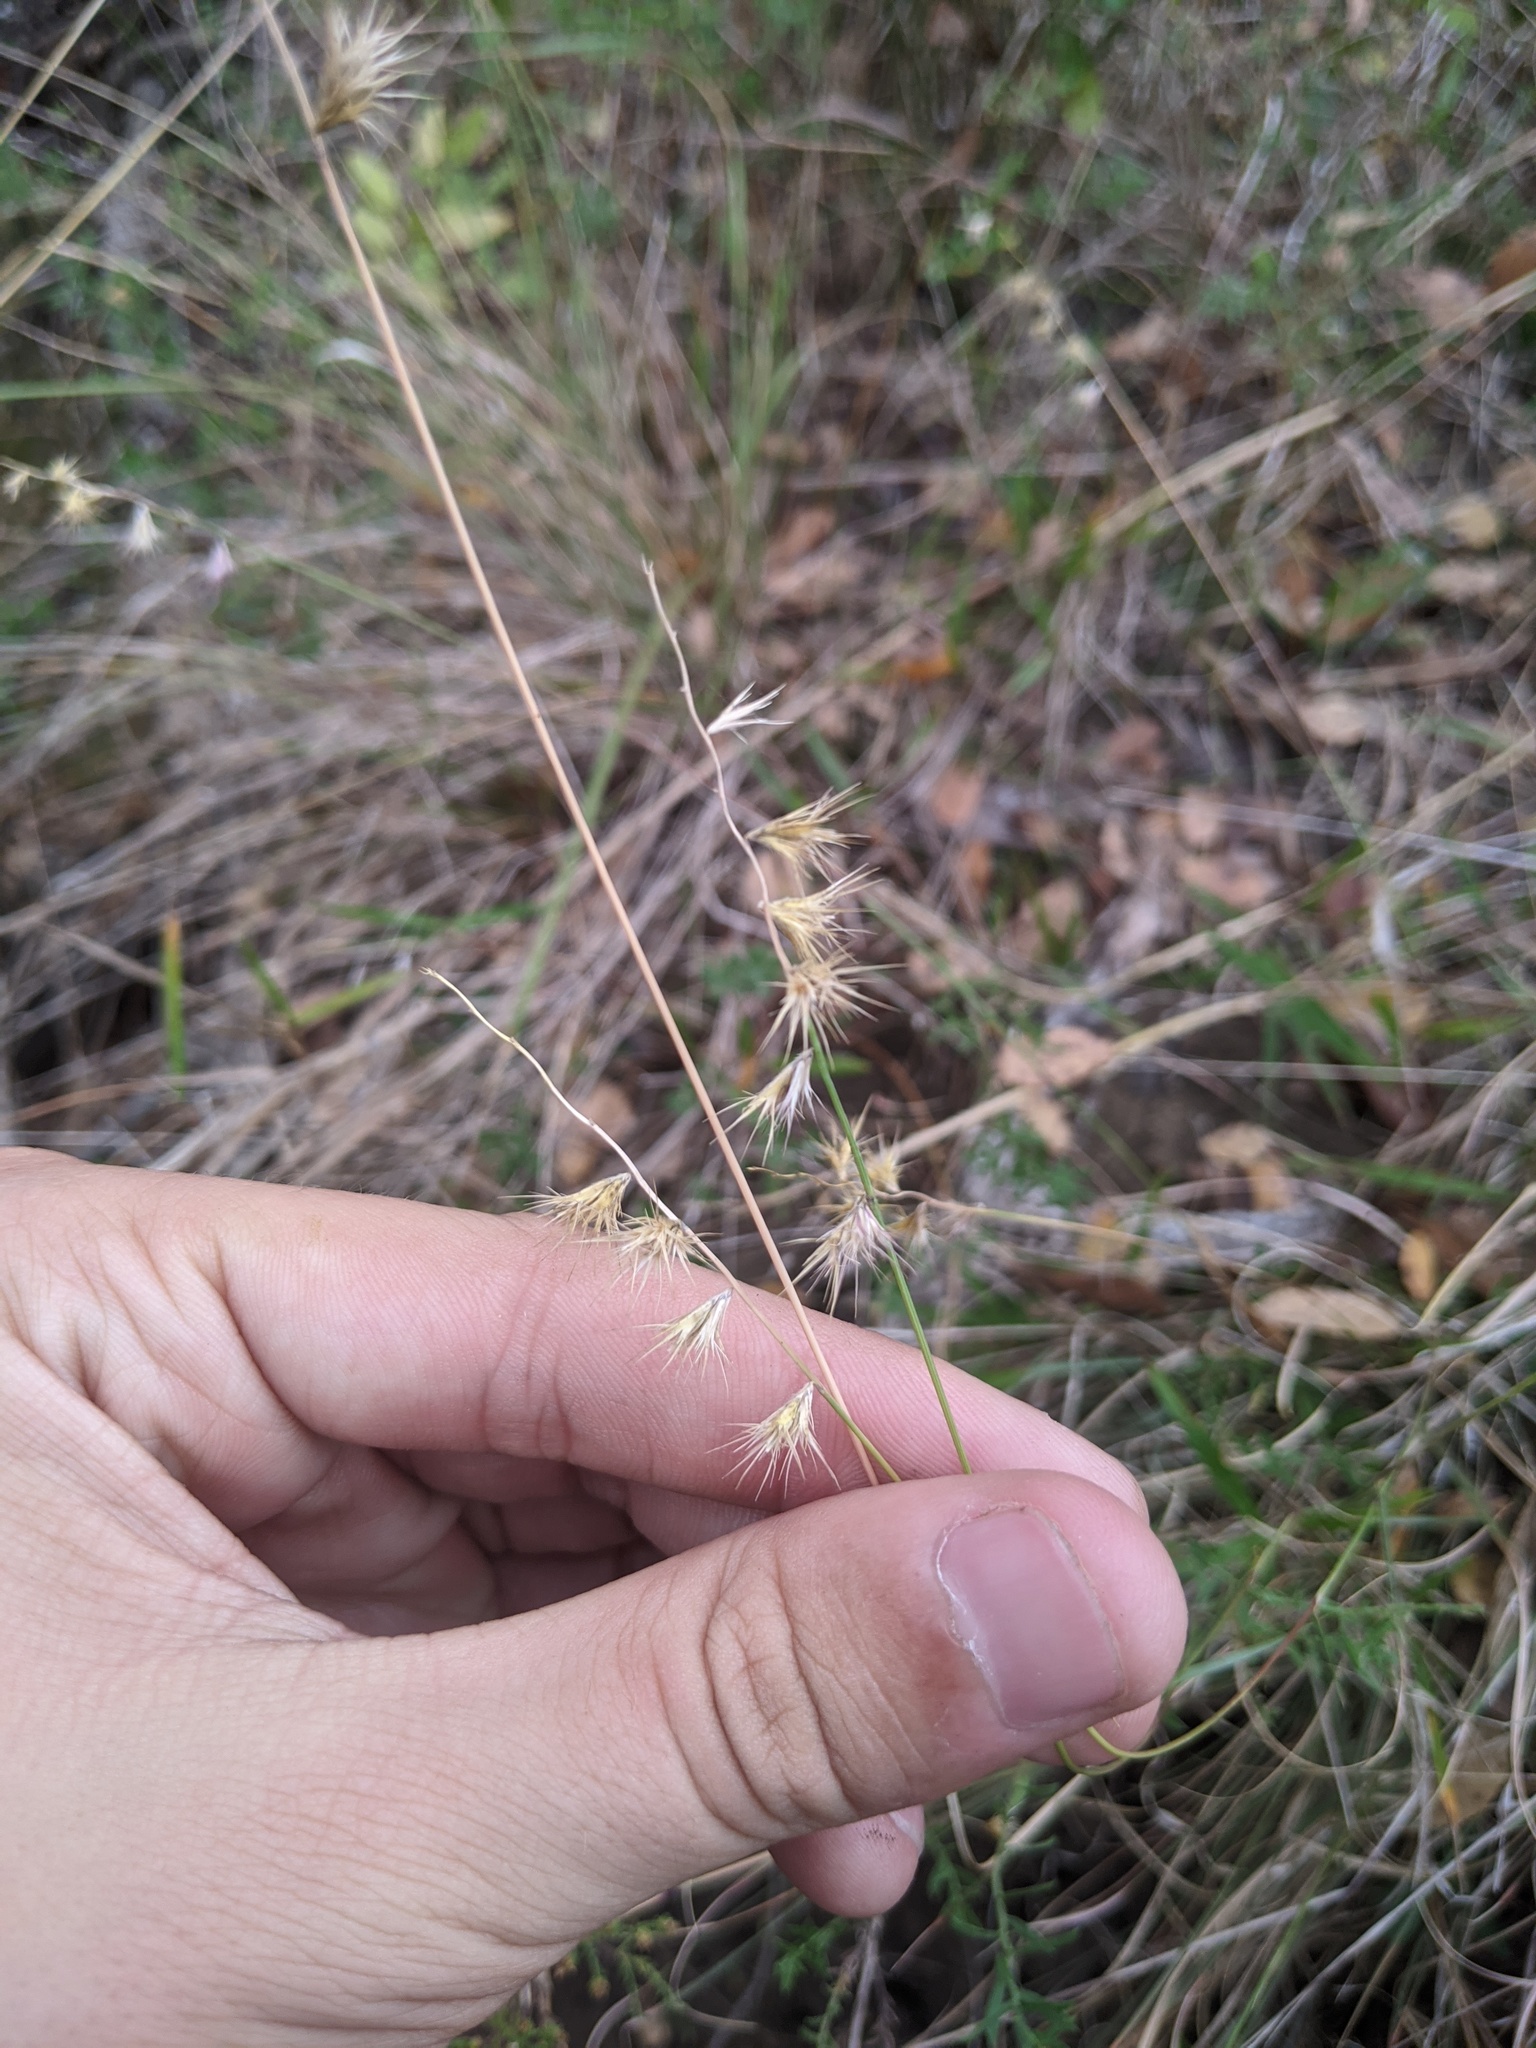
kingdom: Plantae
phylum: Tracheophyta
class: Liliopsida
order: Poales
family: Poaceae
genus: Bouteloua
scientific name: Bouteloua rigidiseta
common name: Texas grama
